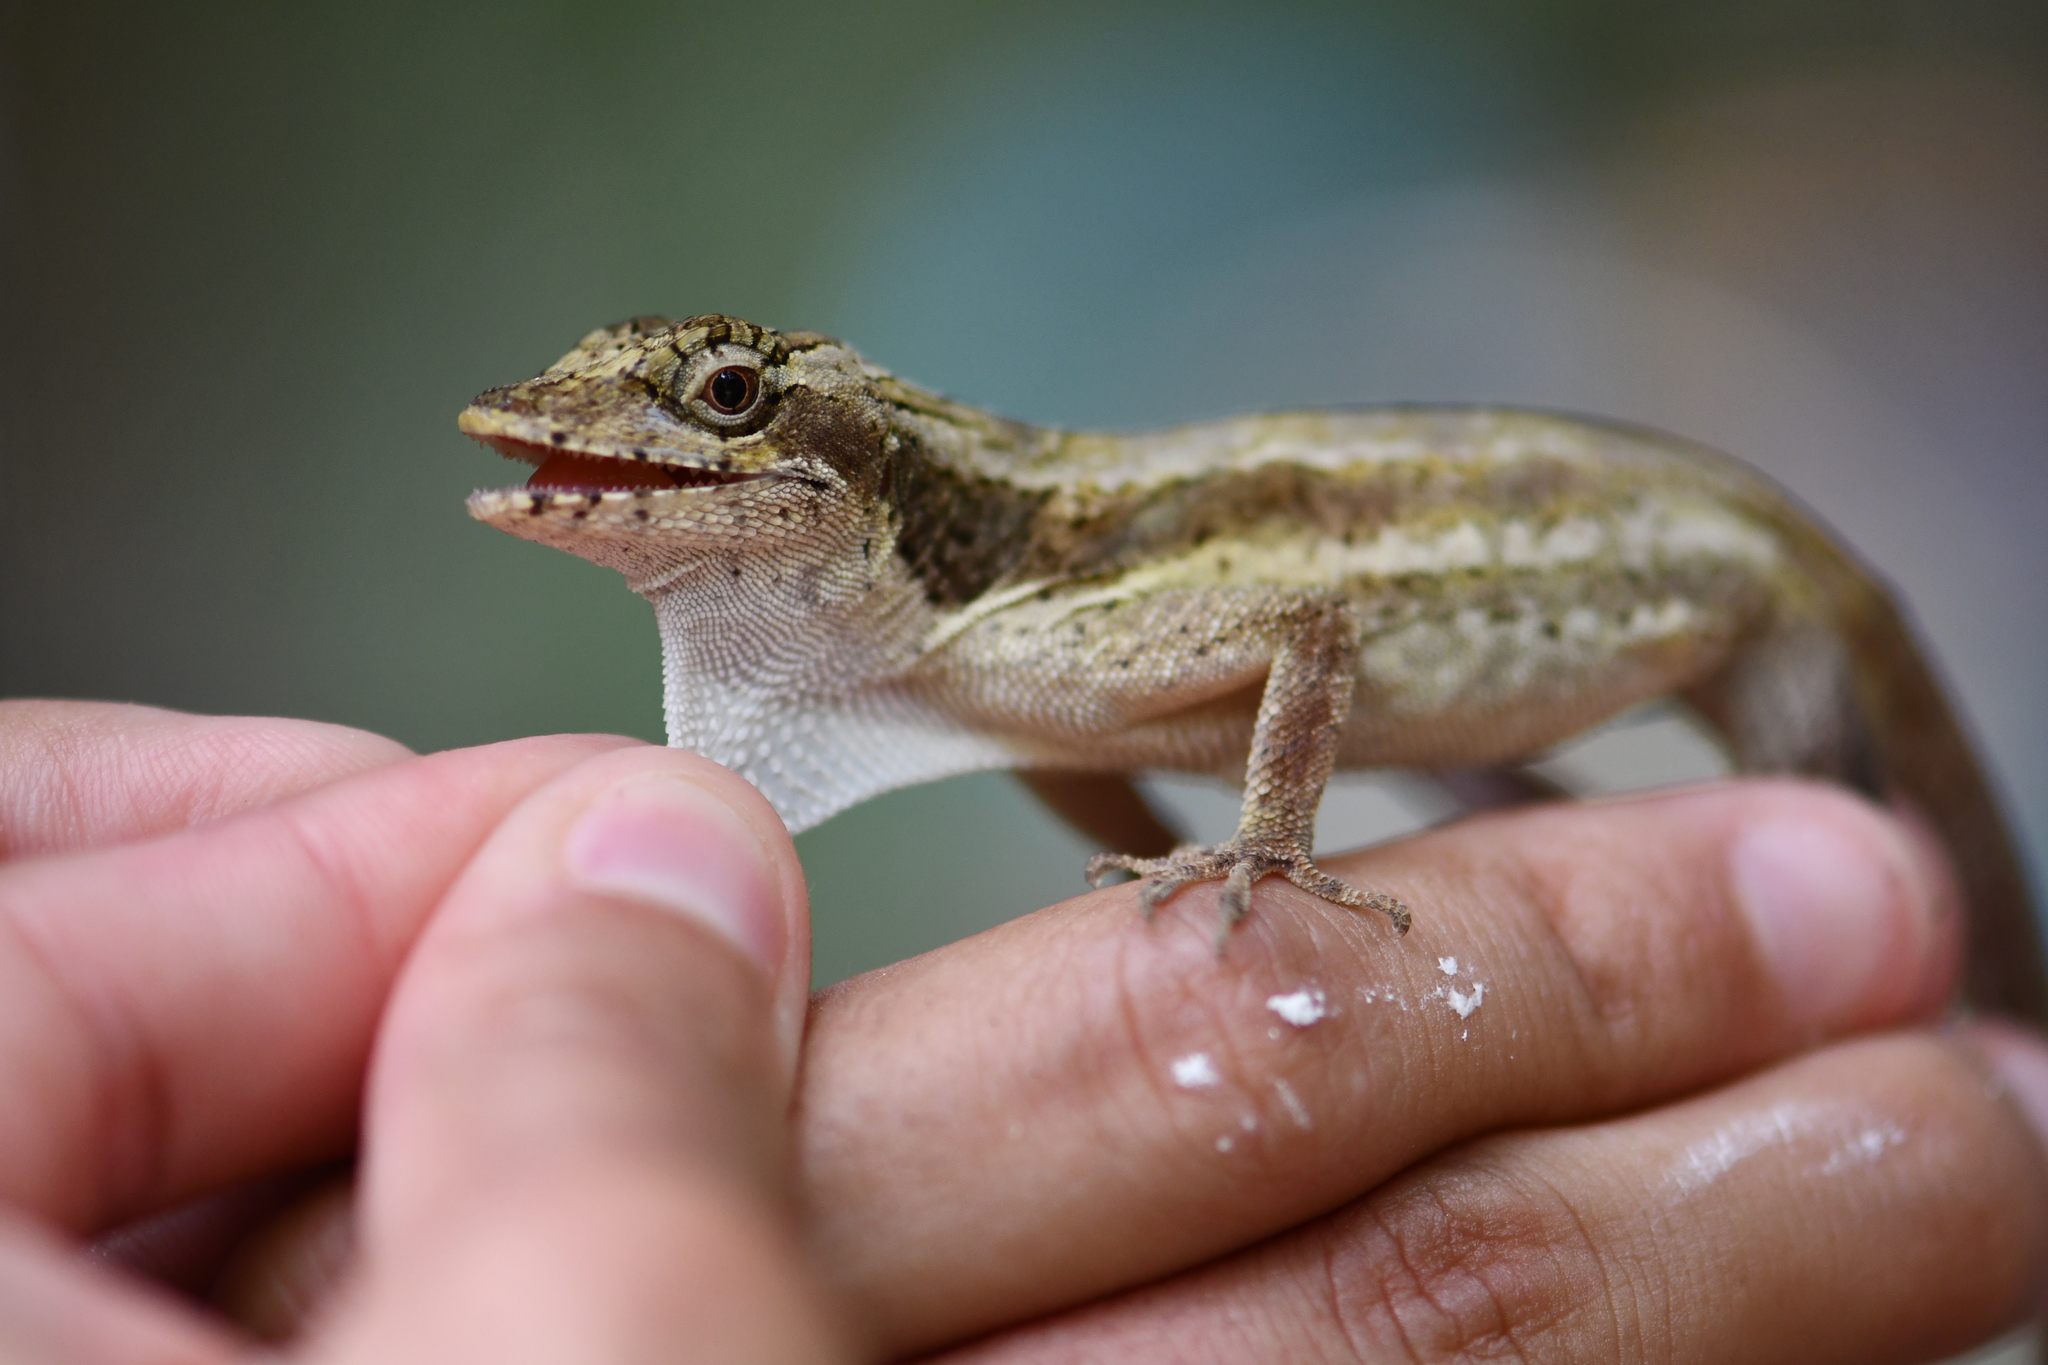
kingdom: Animalia
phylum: Chordata
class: Squamata
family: Dactyloidae
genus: Anolis
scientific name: Anolis lemurinus
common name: Ghost anole
